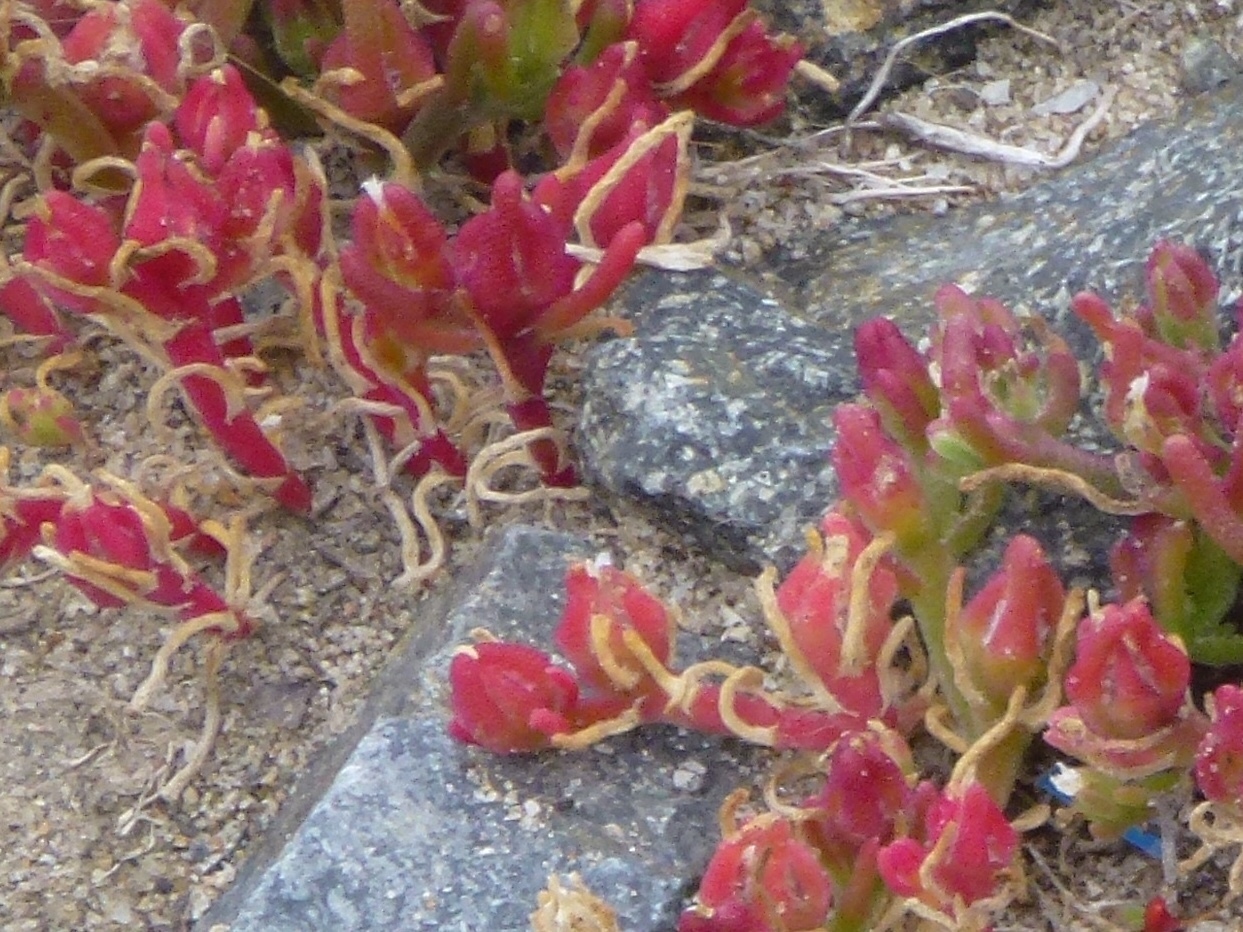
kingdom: Plantae
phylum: Tracheophyta
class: Magnoliopsida
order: Caryophyllales
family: Aizoaceae
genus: Mesembryanthemum
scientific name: Mesembryanthemum nodiflorum
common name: Slenderleaf iceplant
